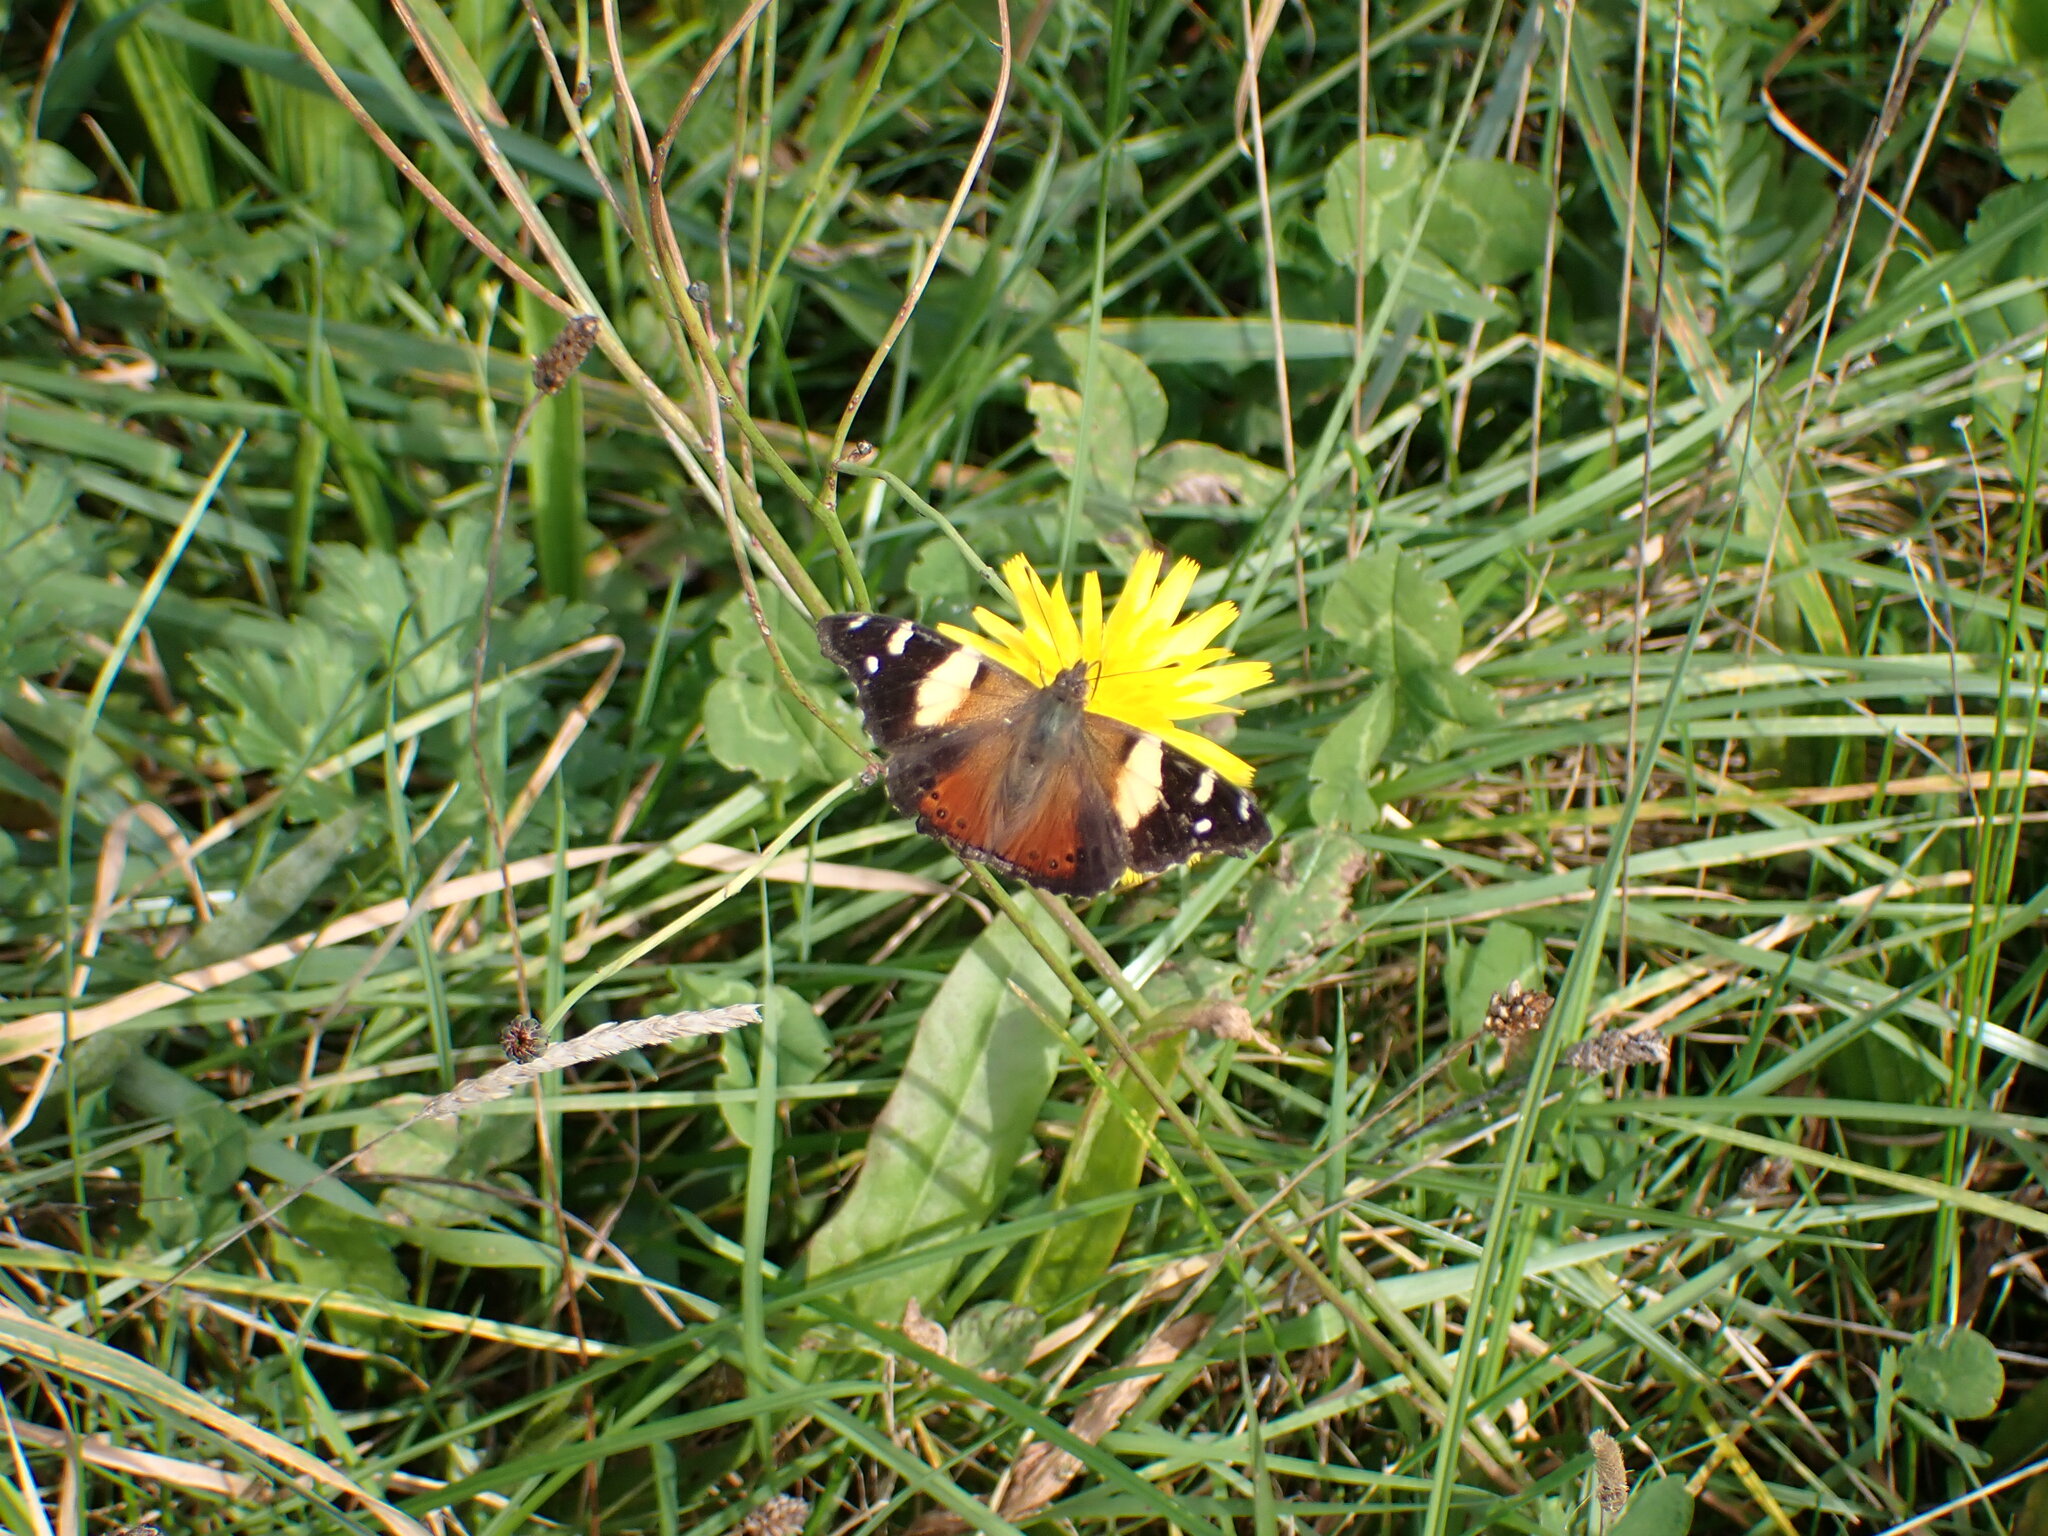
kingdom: Animalia
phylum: Arthropoda
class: Insecta
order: Lepidoptera
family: Nymphalidae
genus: Vanessa
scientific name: Vanessa itea
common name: Yellow admiral
